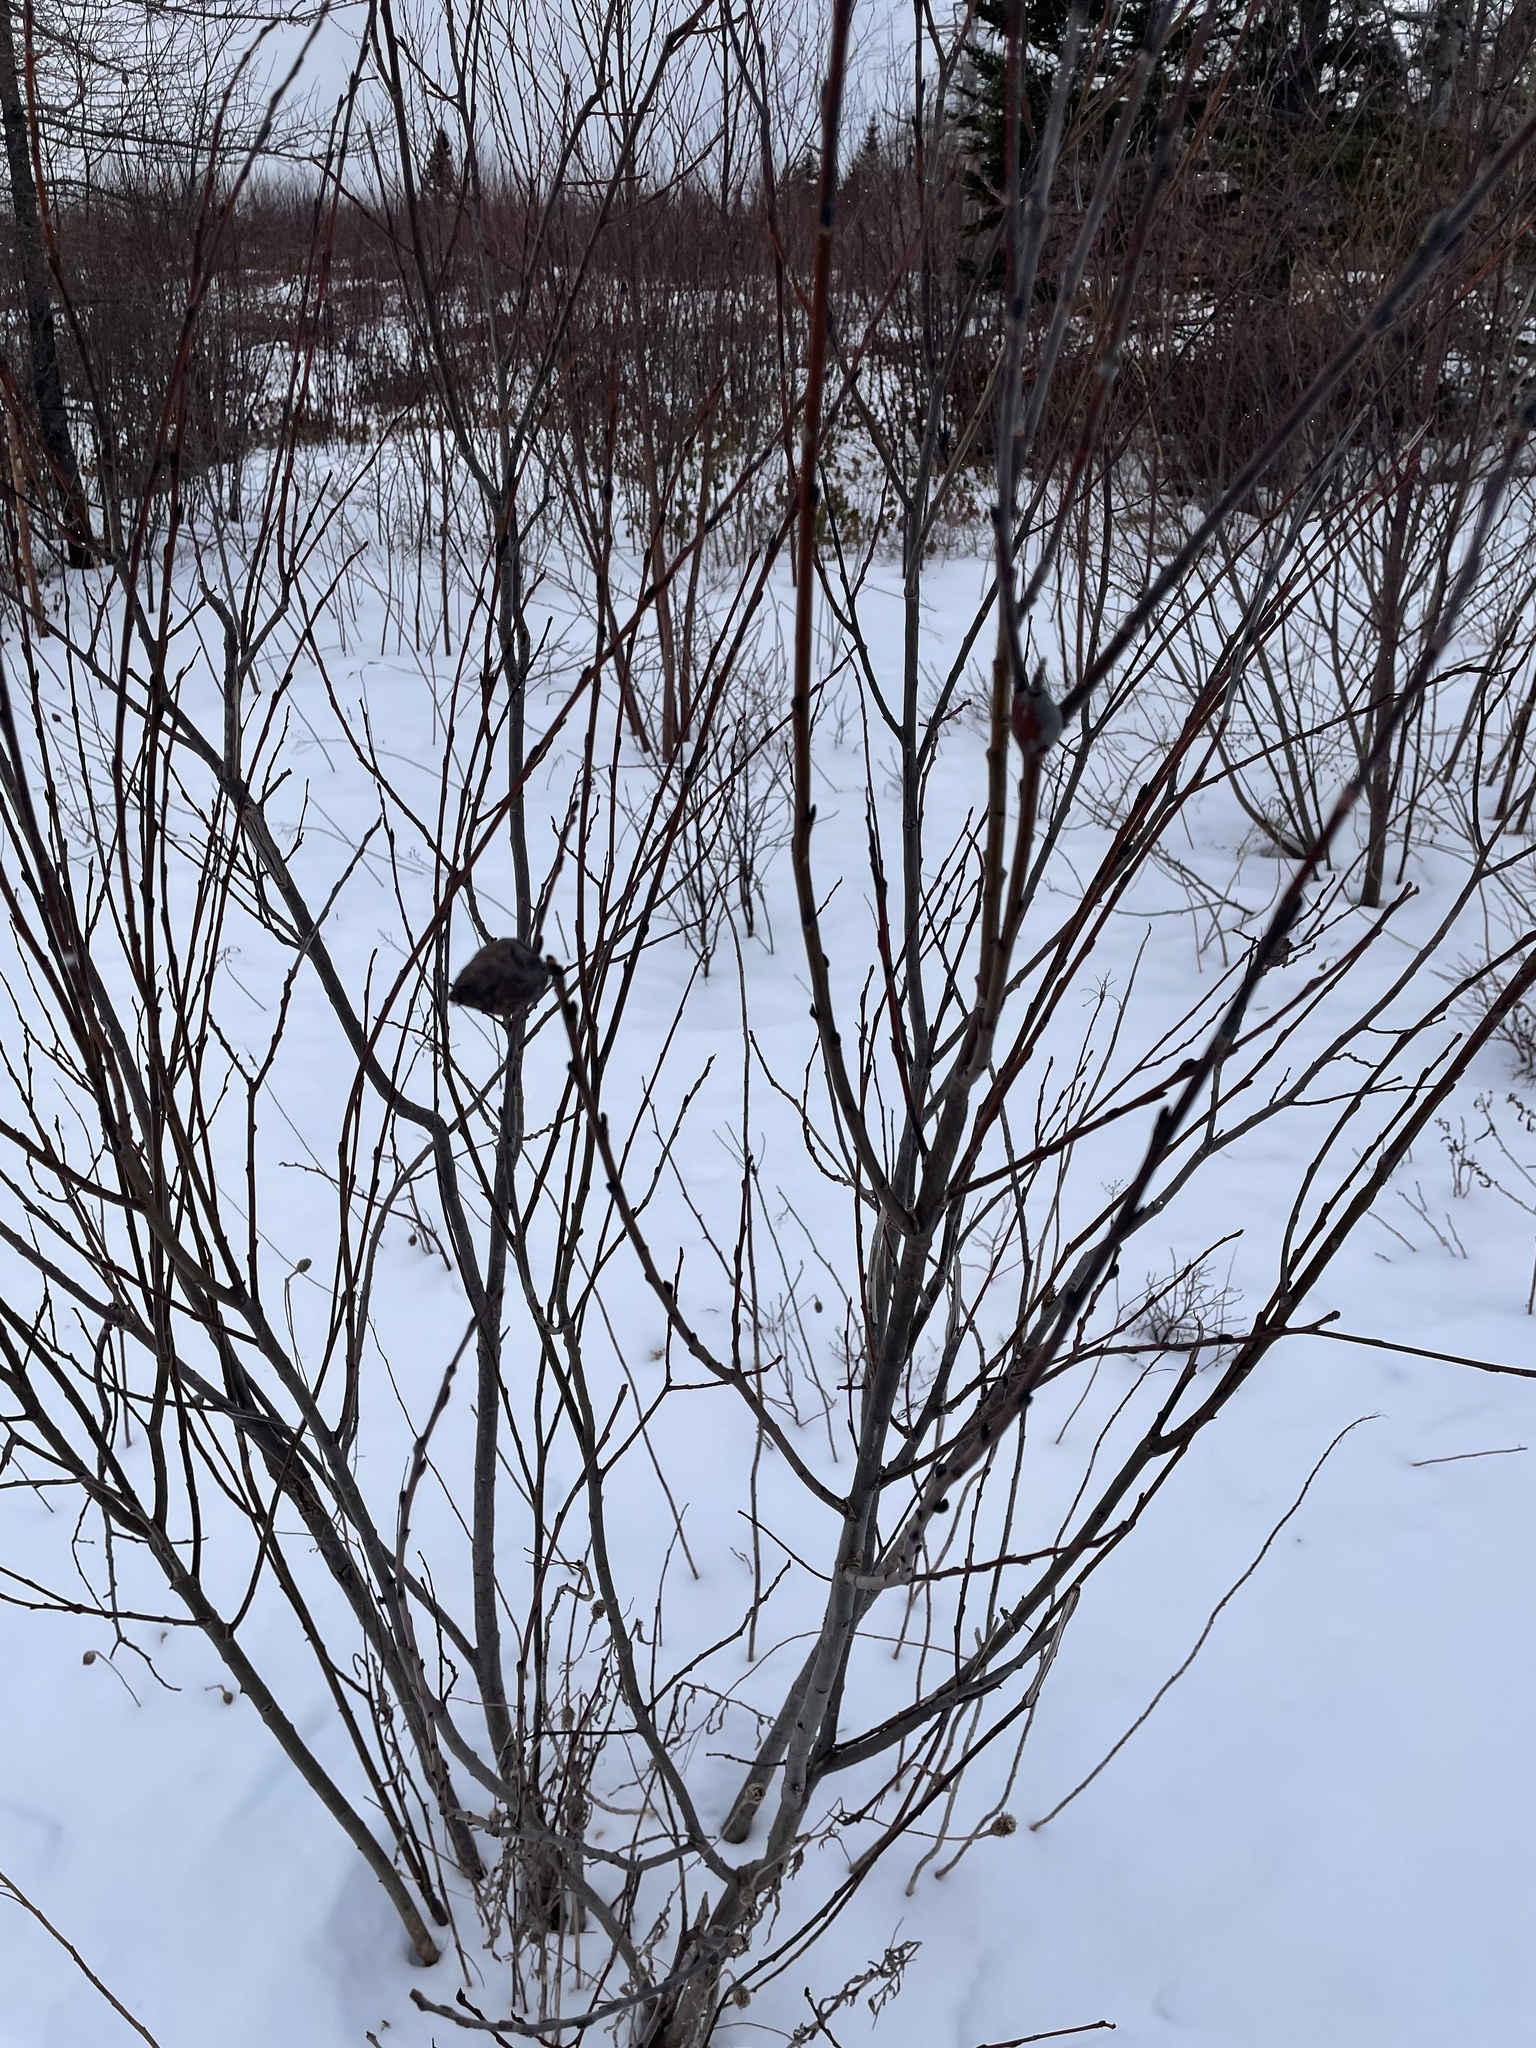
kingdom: Animalia
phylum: Arthropoda
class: Insecta
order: Diptera
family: Cecidomyiidae
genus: Rabdophaga
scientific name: Rabdophaga strobiloides
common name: Willow pinecone gall midge
